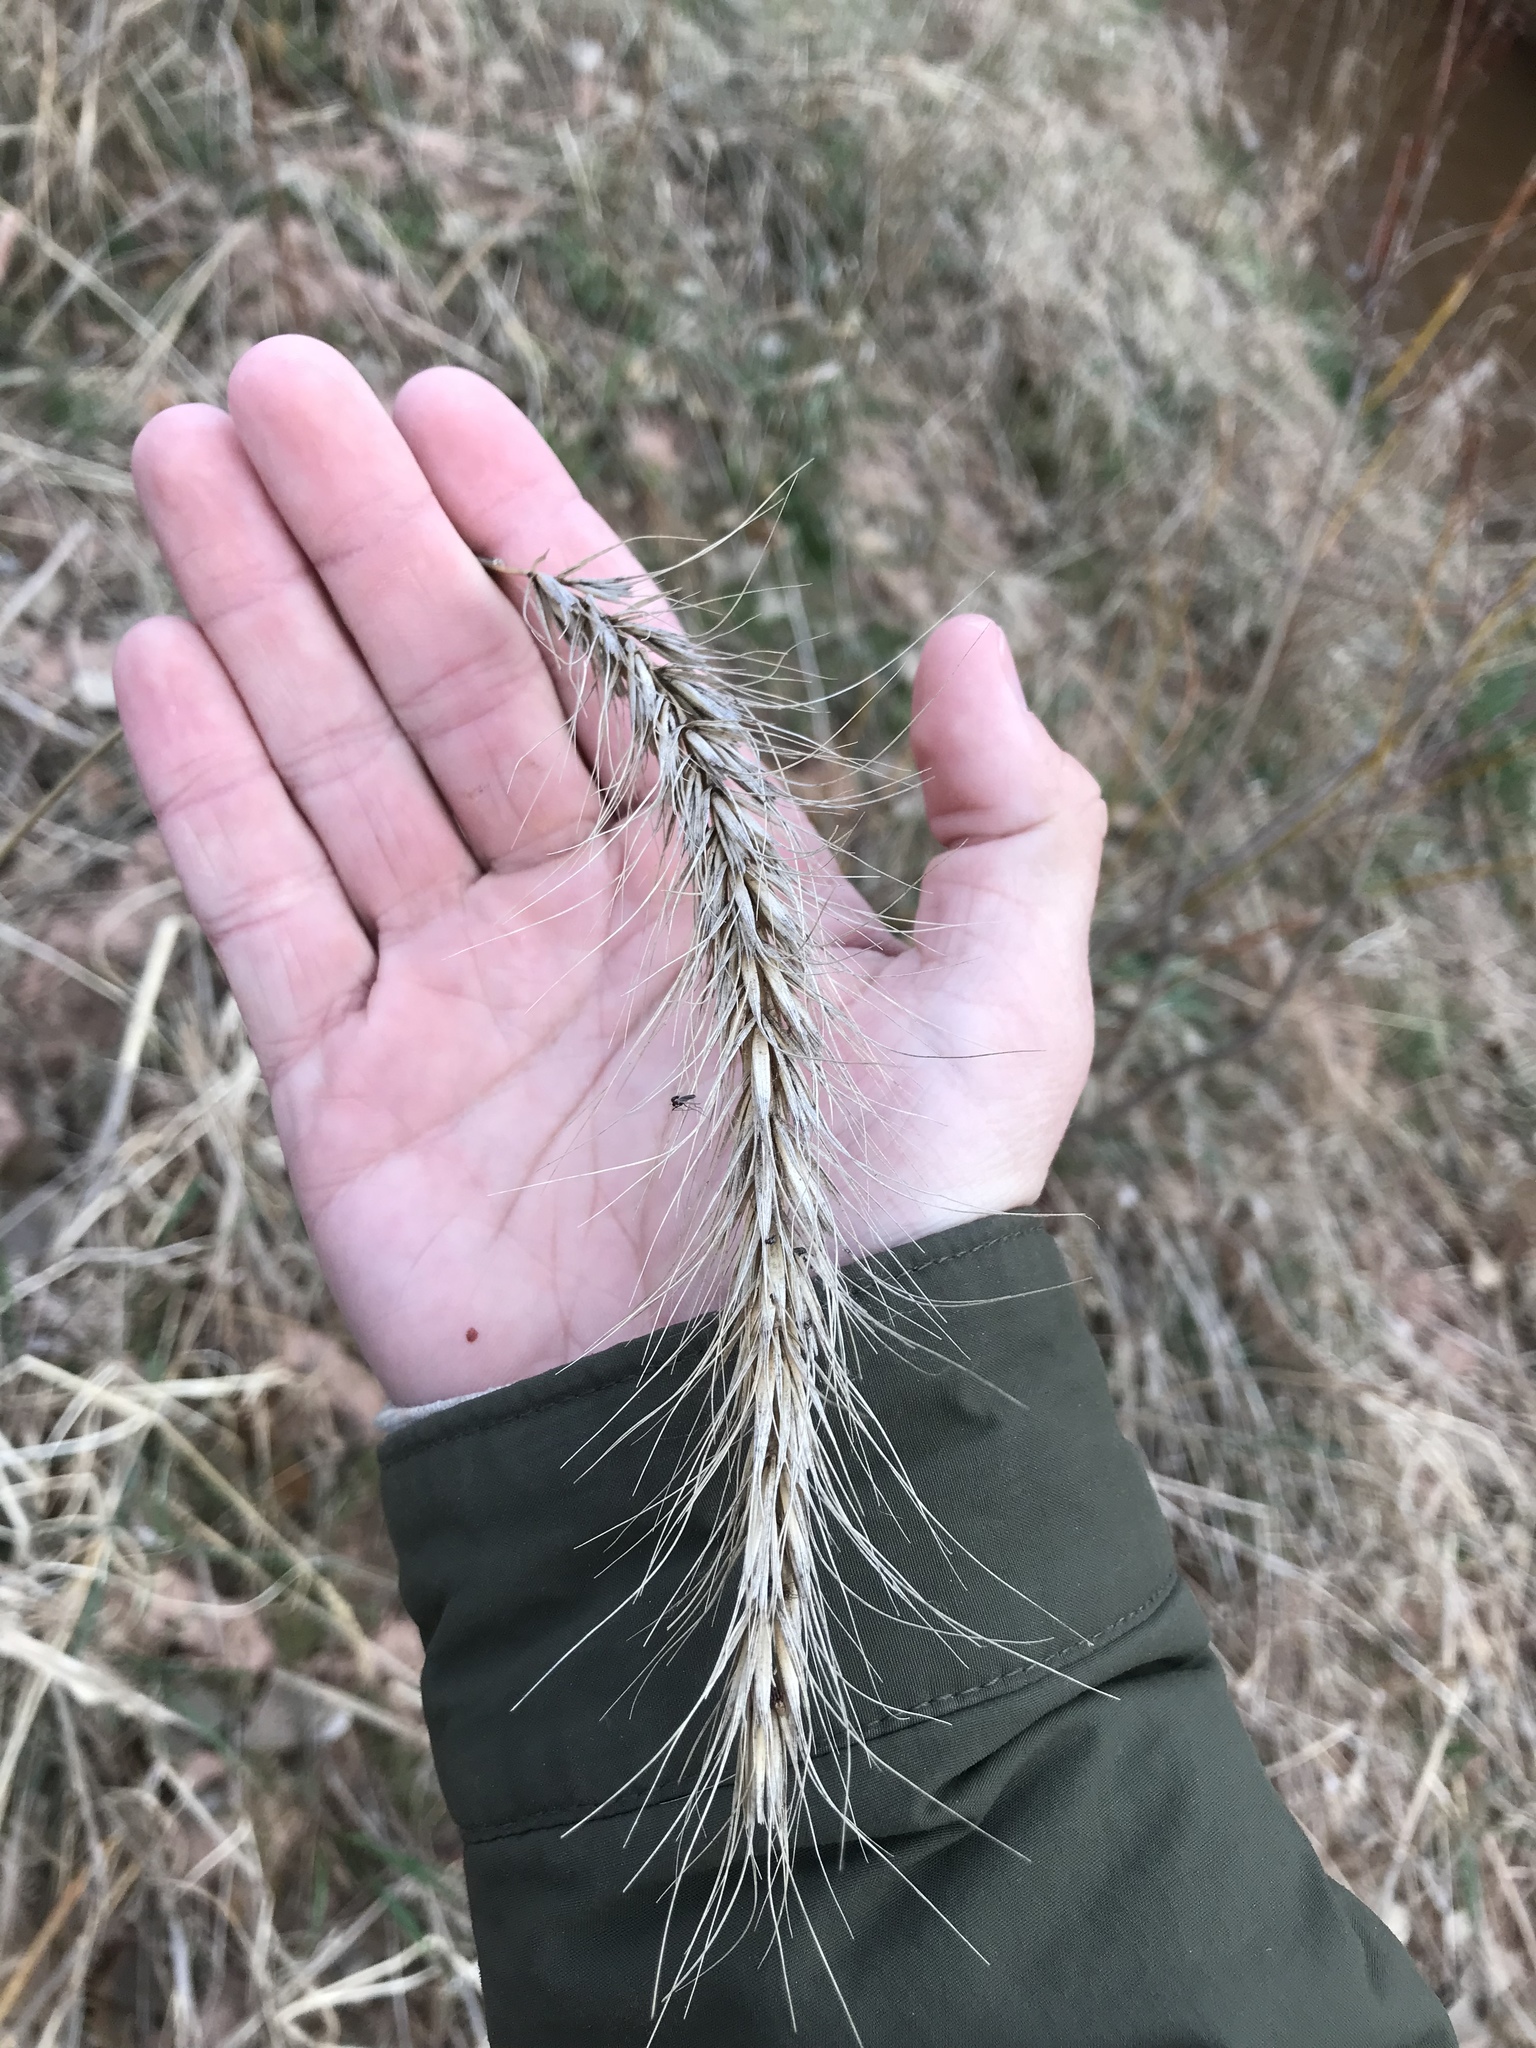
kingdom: Plantae
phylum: Tracheophyta
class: Liliopsida
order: Poales
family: Poaceae
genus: Elymus
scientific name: Elymus canadensis
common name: Canada wild rye
